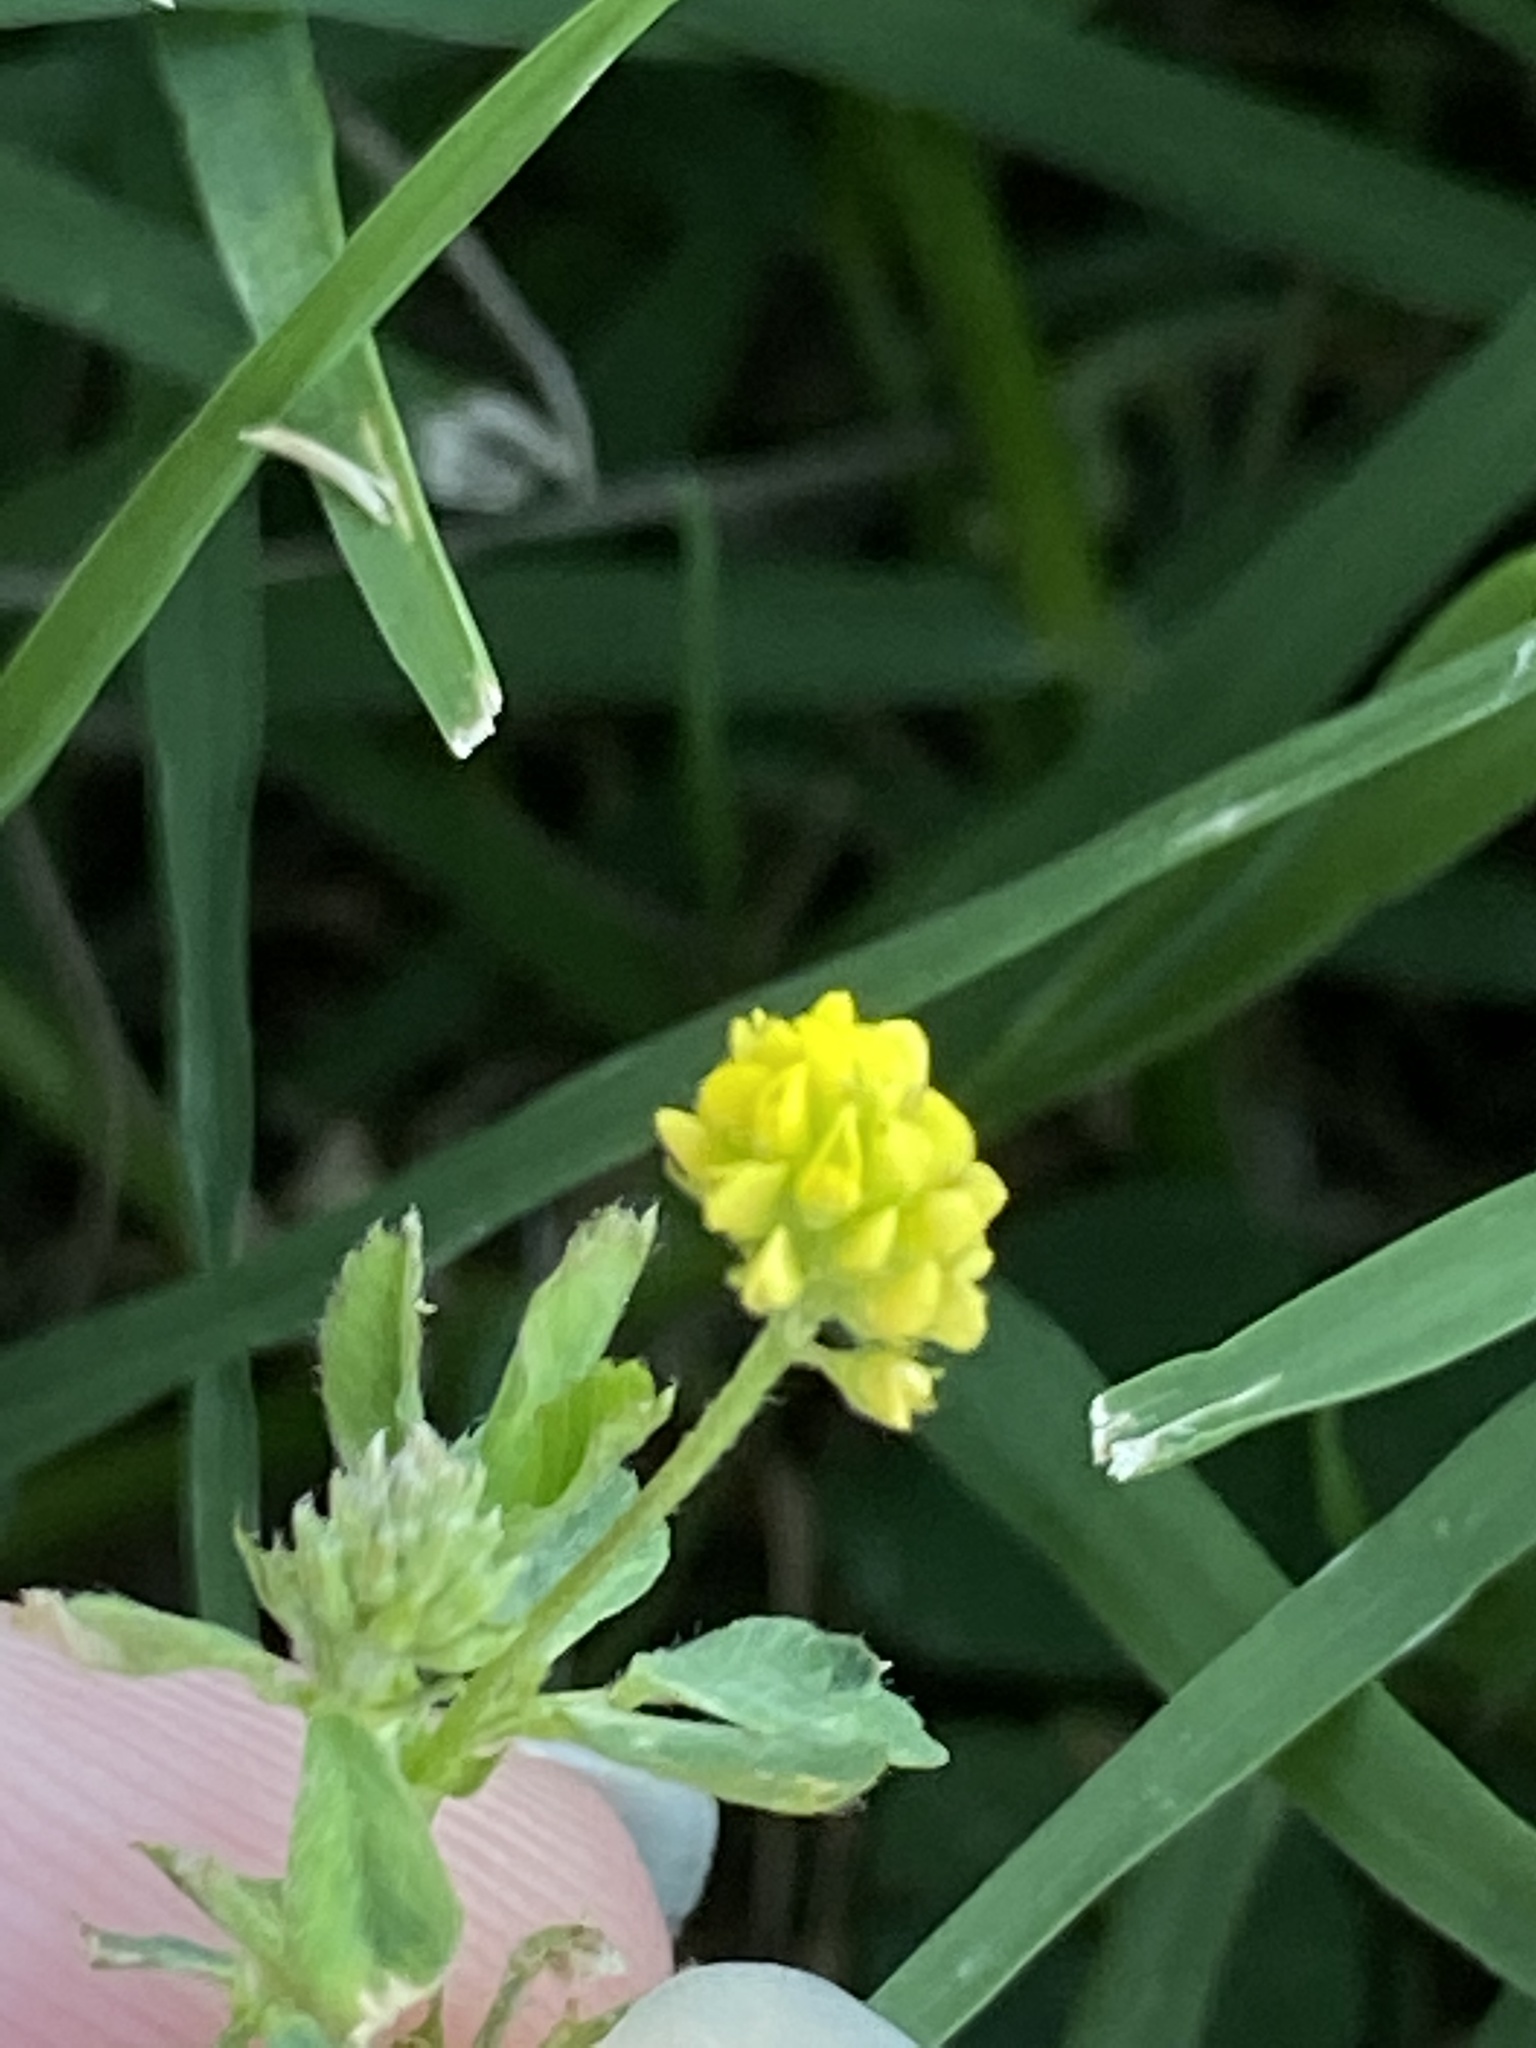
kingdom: Plantae
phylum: Tracheophyta
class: Magnoliopsida
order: Fabales
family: Fabaceae
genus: Medicago
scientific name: Medicago lupulina
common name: Black medick
